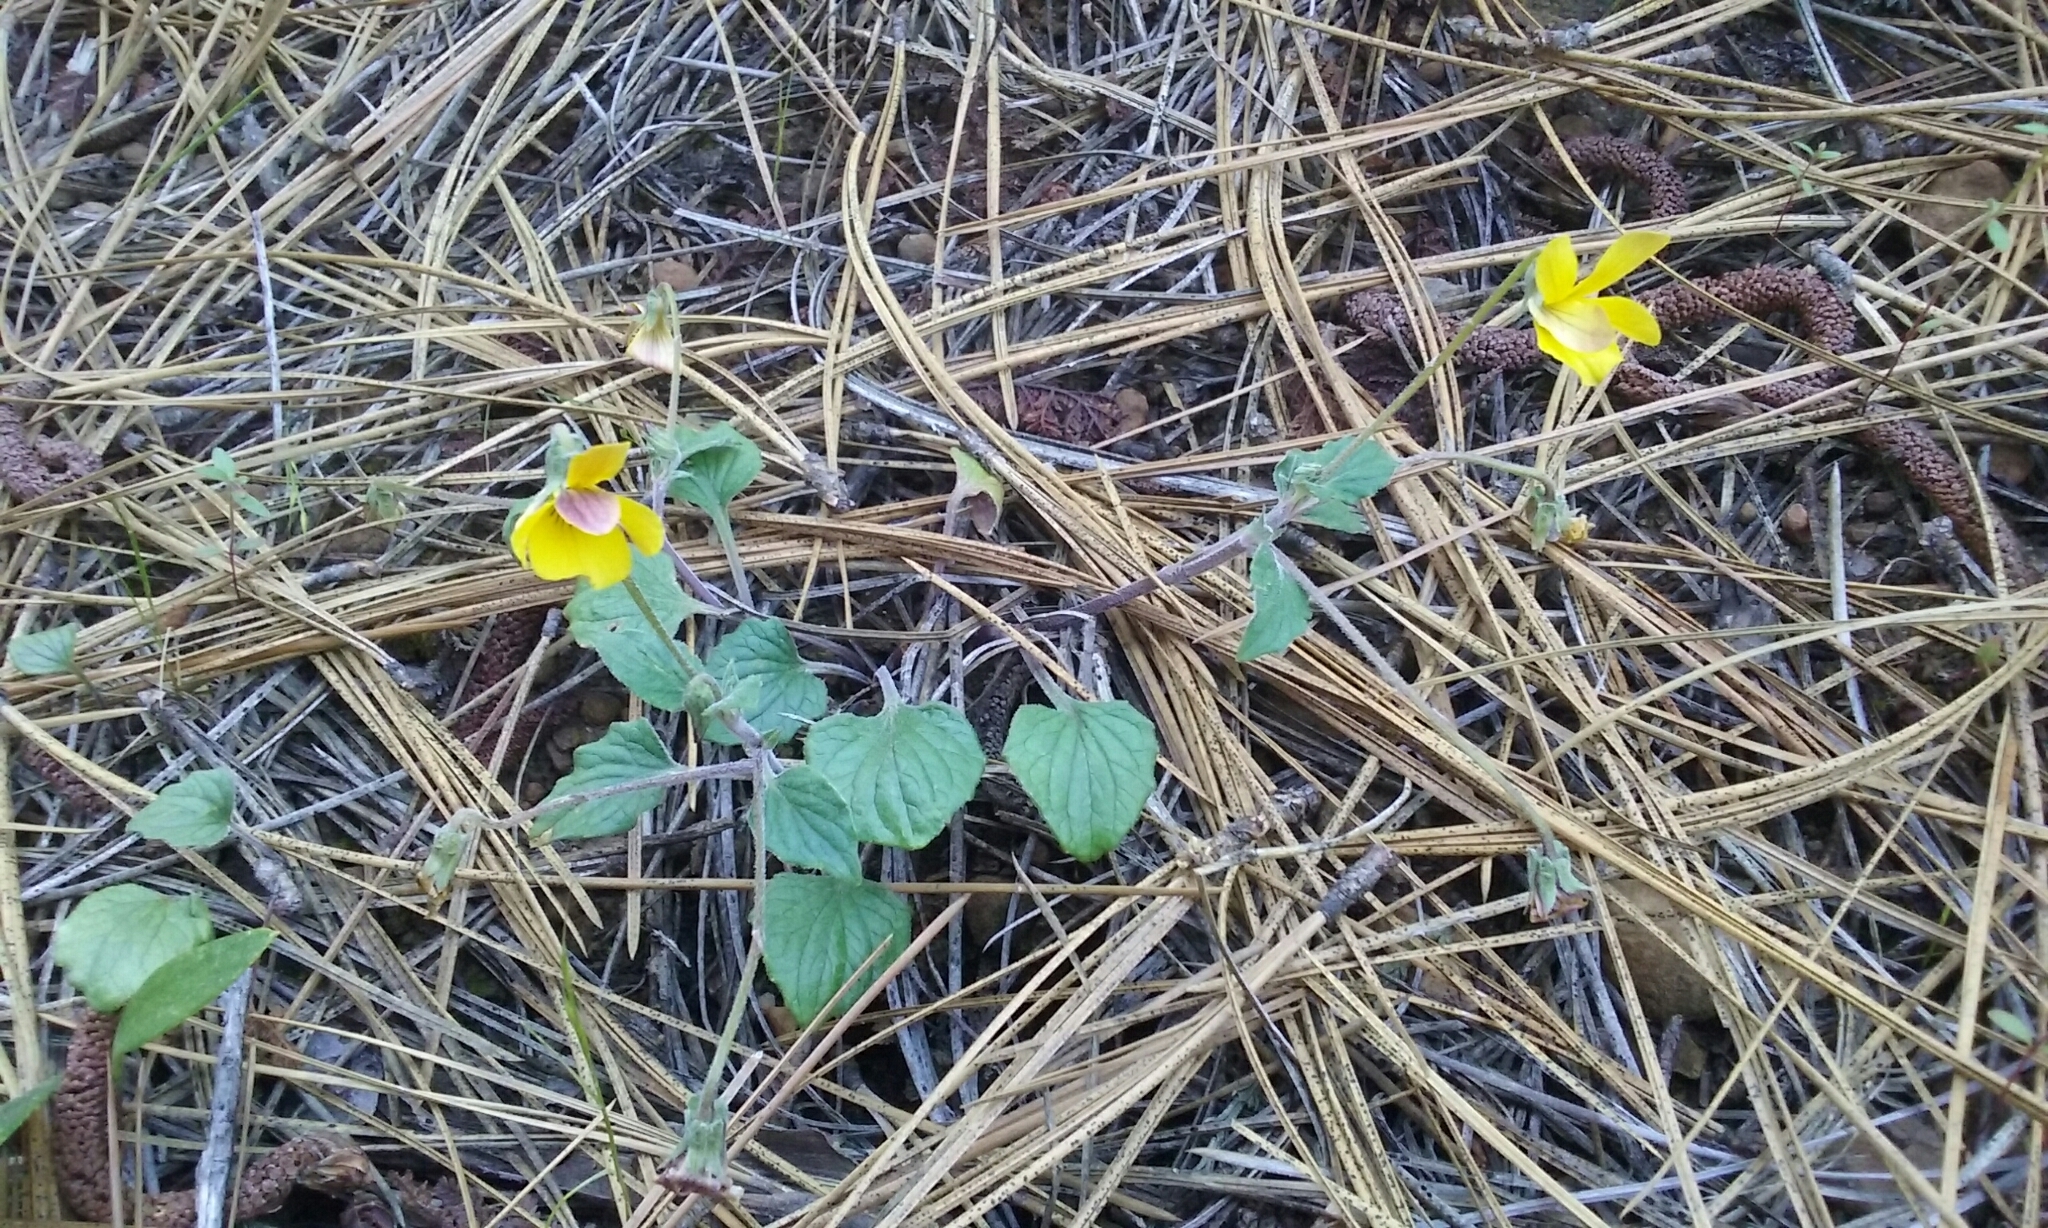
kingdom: Plantae
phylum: Tracheophyta
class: Magnoliopsida
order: Malpighiales
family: Violaceae
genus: Viola
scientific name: Viola purpurea
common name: Pine violet
